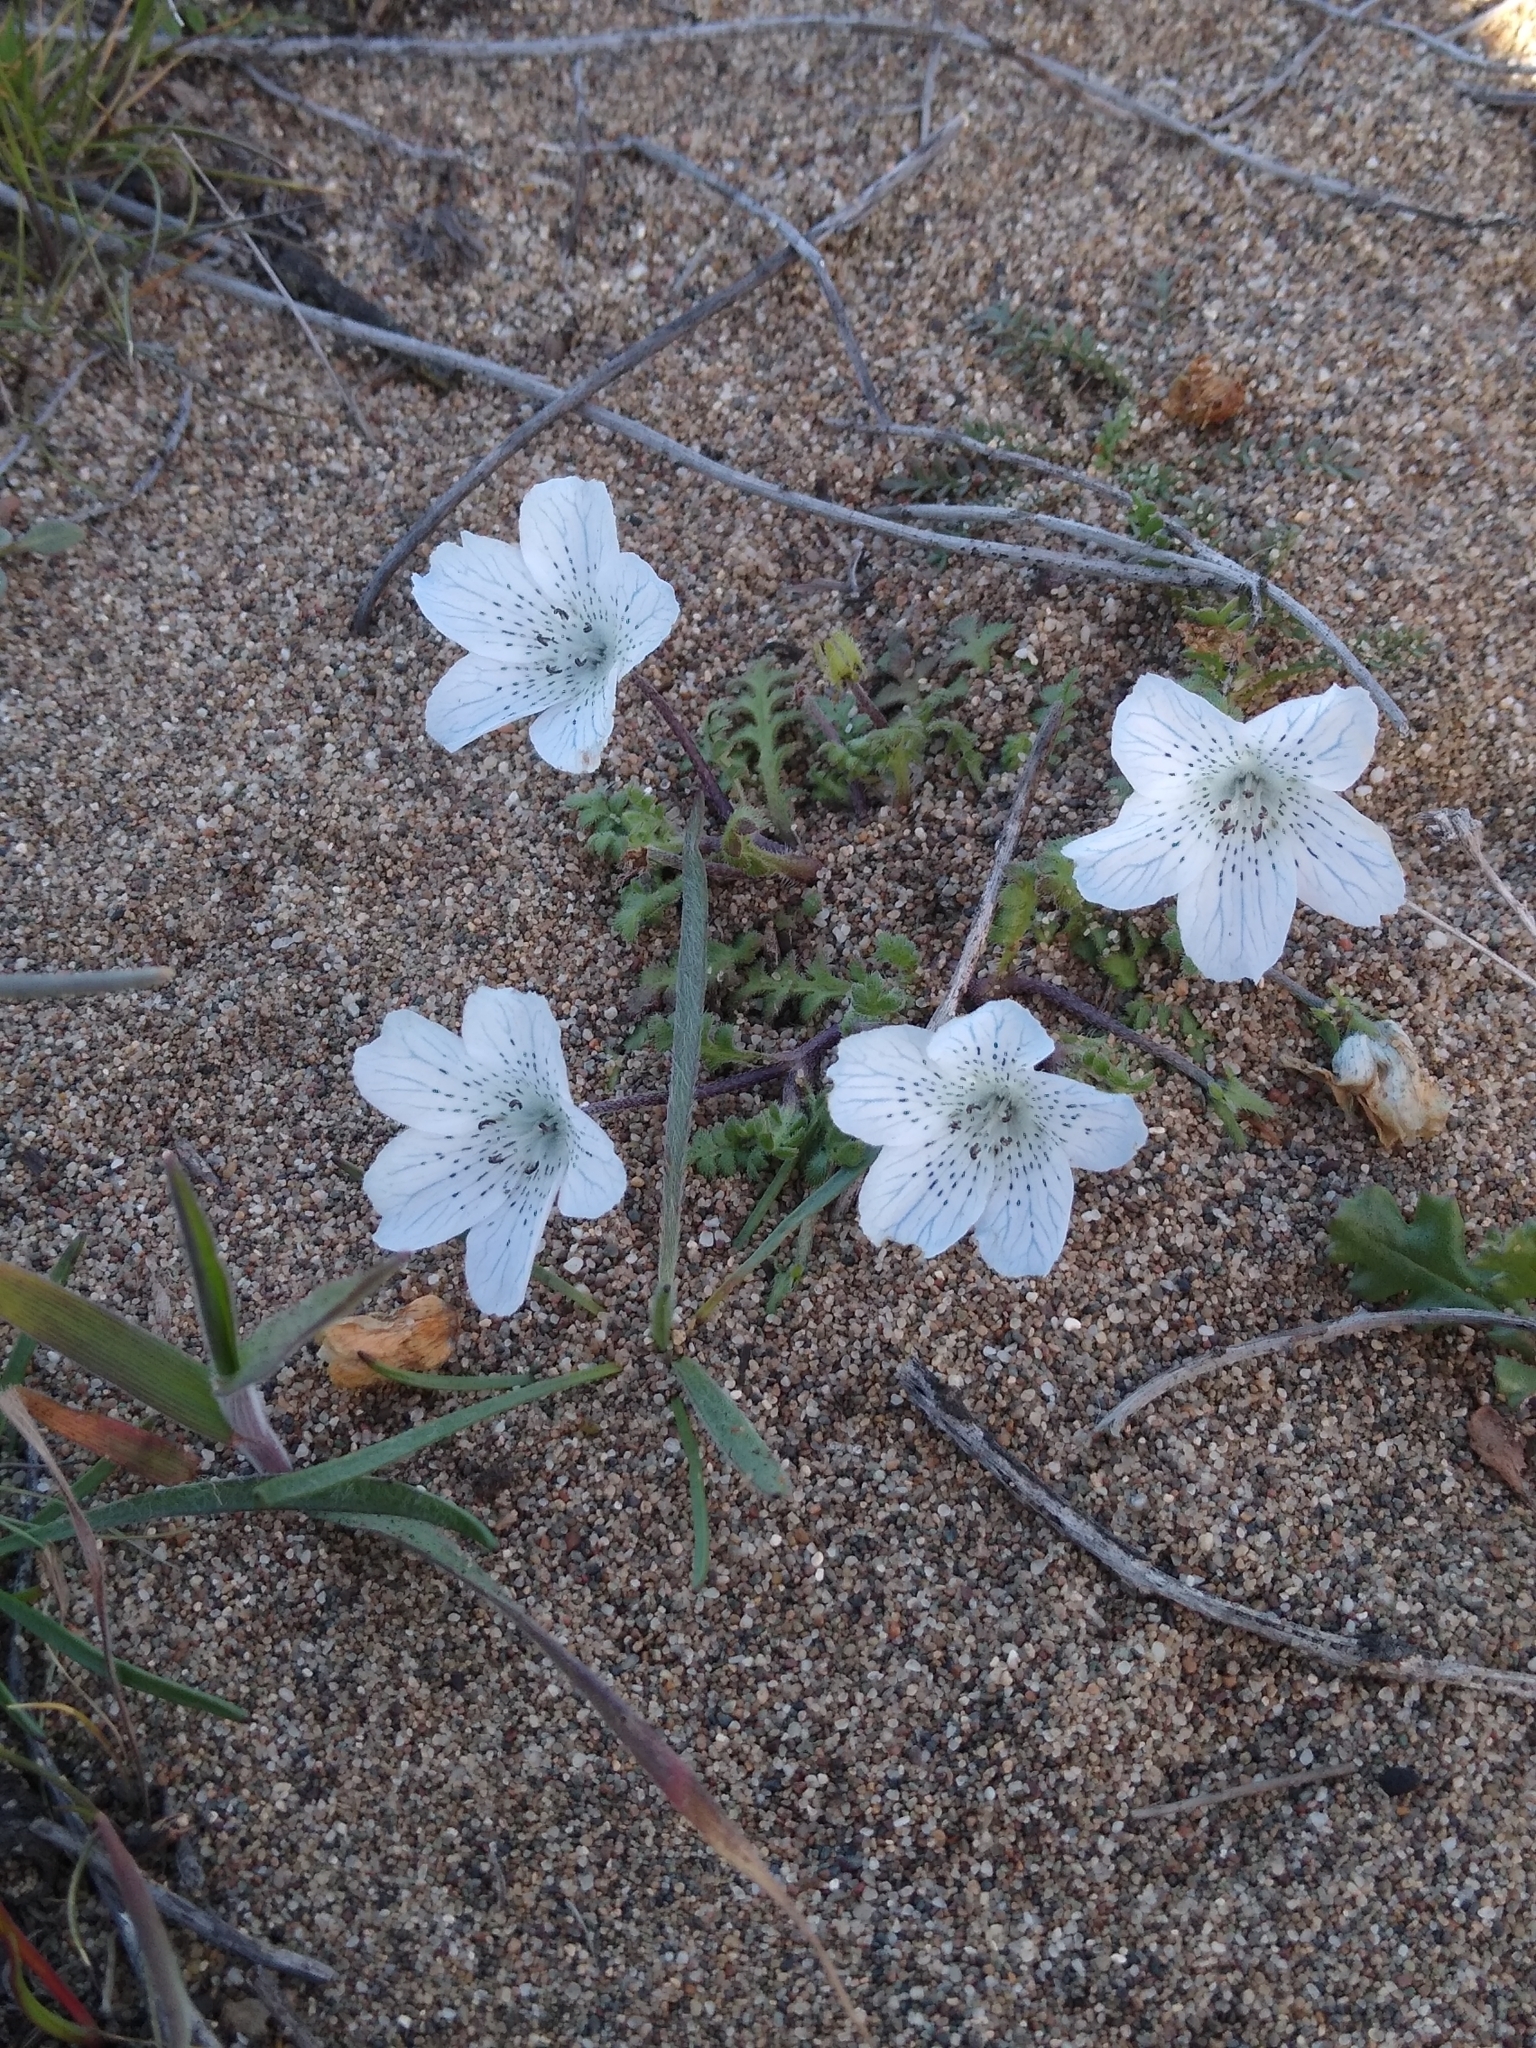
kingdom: Plantae
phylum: Tracheophyta
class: Magnoliopsida
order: Boraginales
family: Hydrophyllaceae
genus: Nemophila
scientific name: Nemophila menziesii
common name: Baby's-blue-eyes
